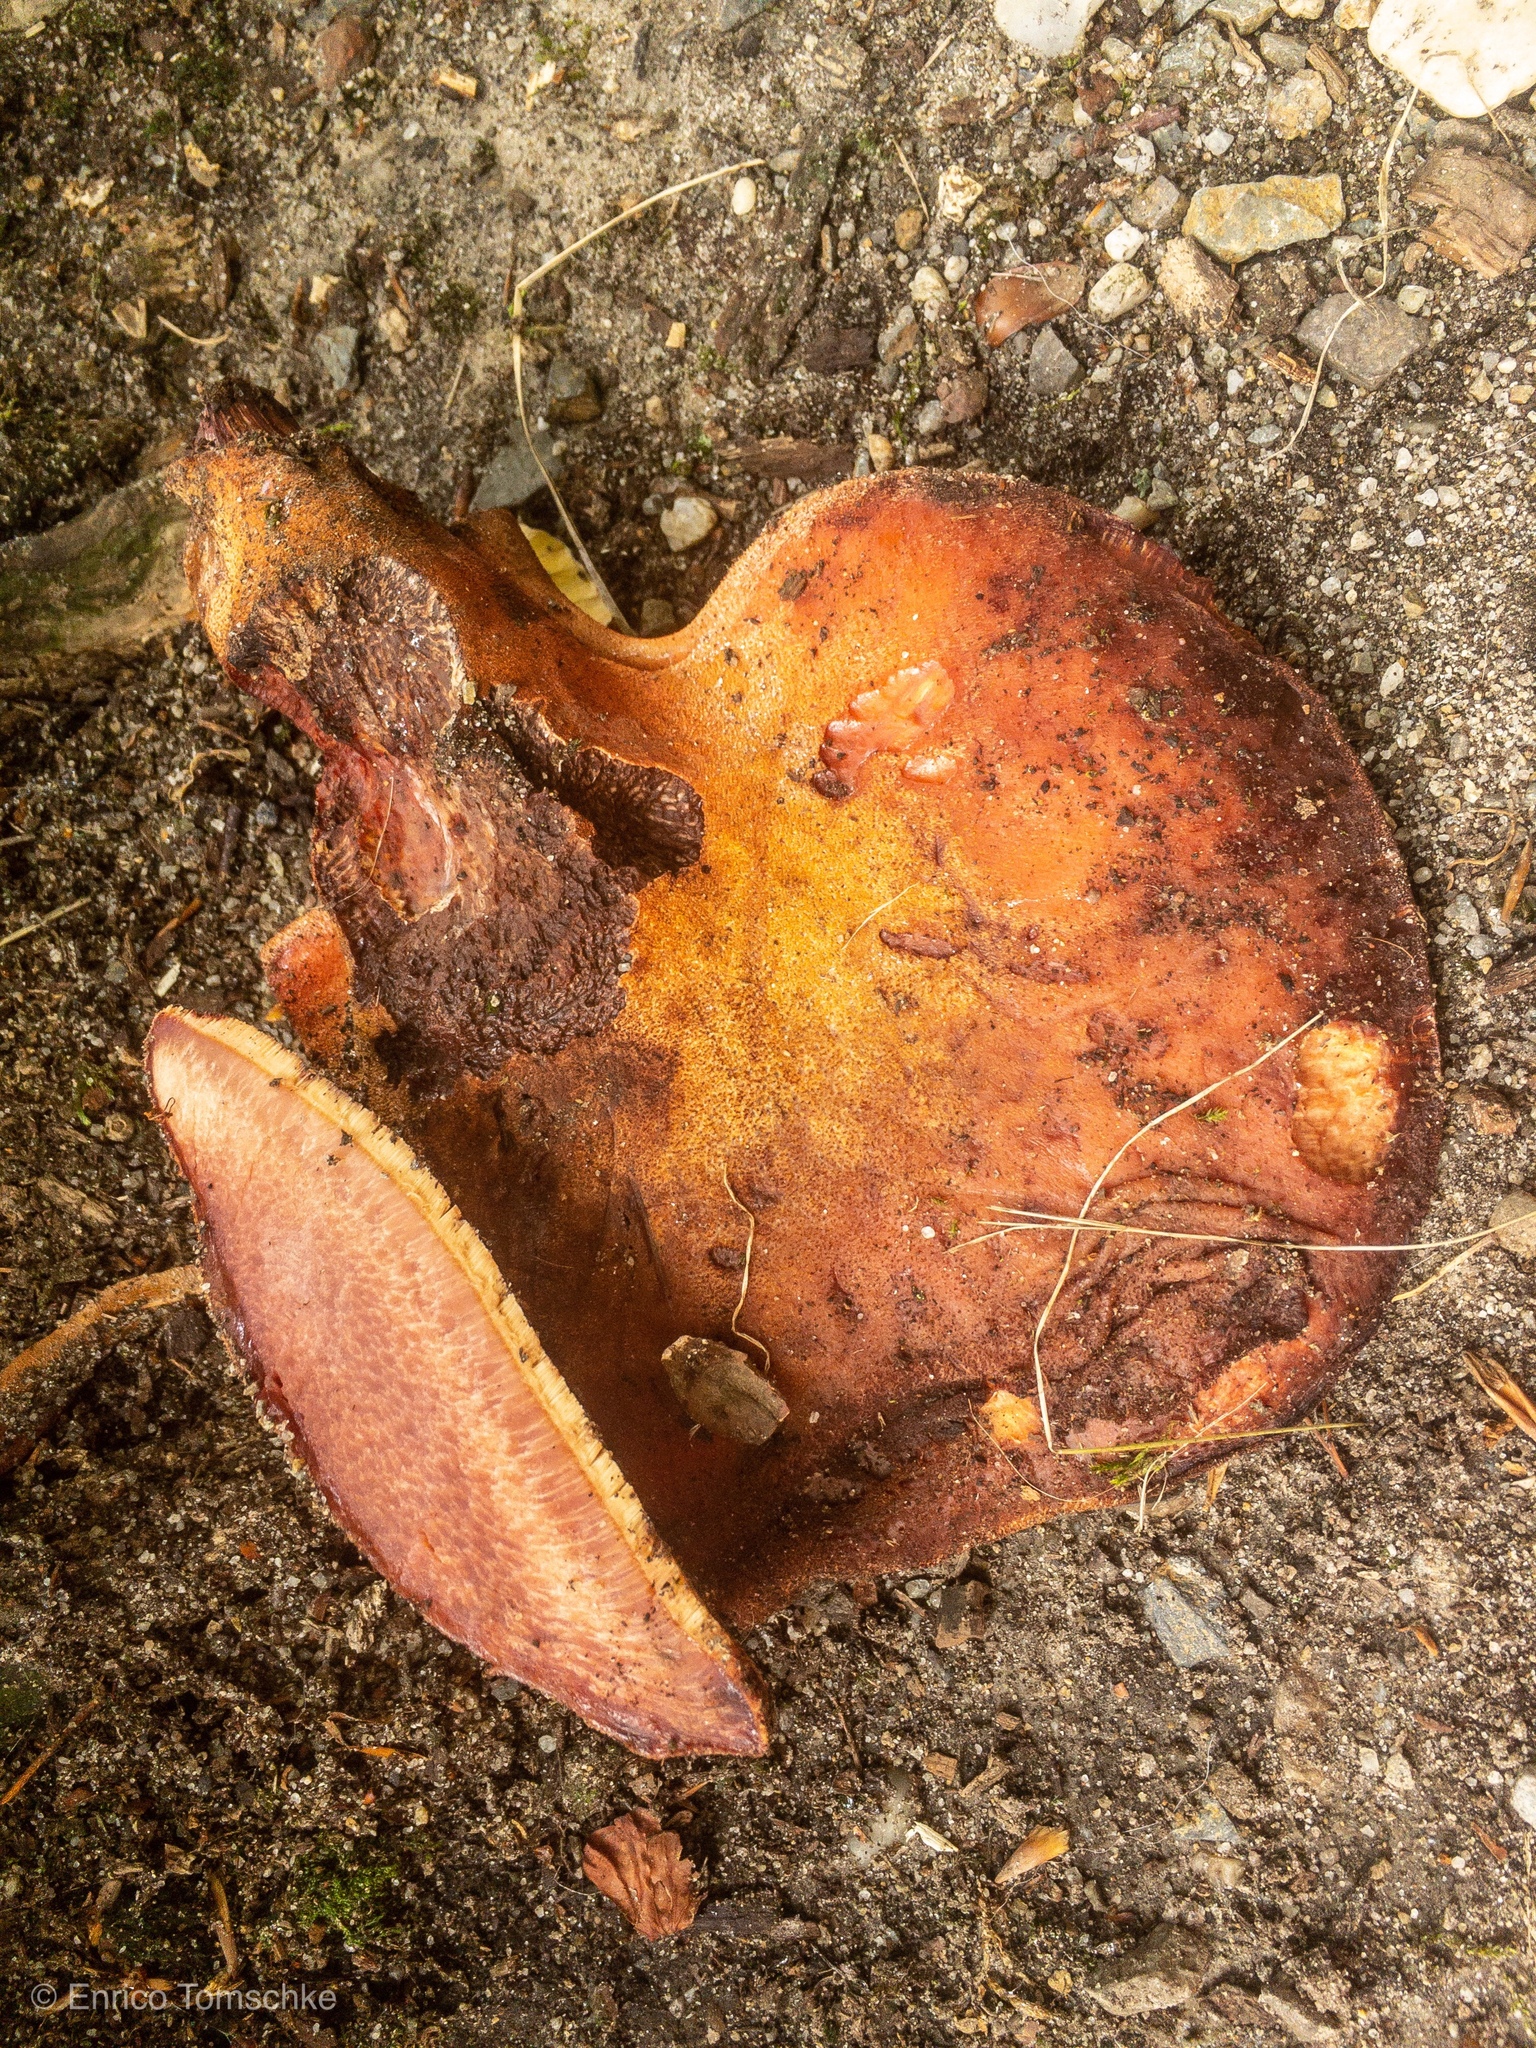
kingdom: Fungi
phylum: Basidiomycota
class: Agaricomycetes
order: Agaricales
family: Fistulinaceae
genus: Fistulina
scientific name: Fistulina hepatica
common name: Beef-steak fungus
